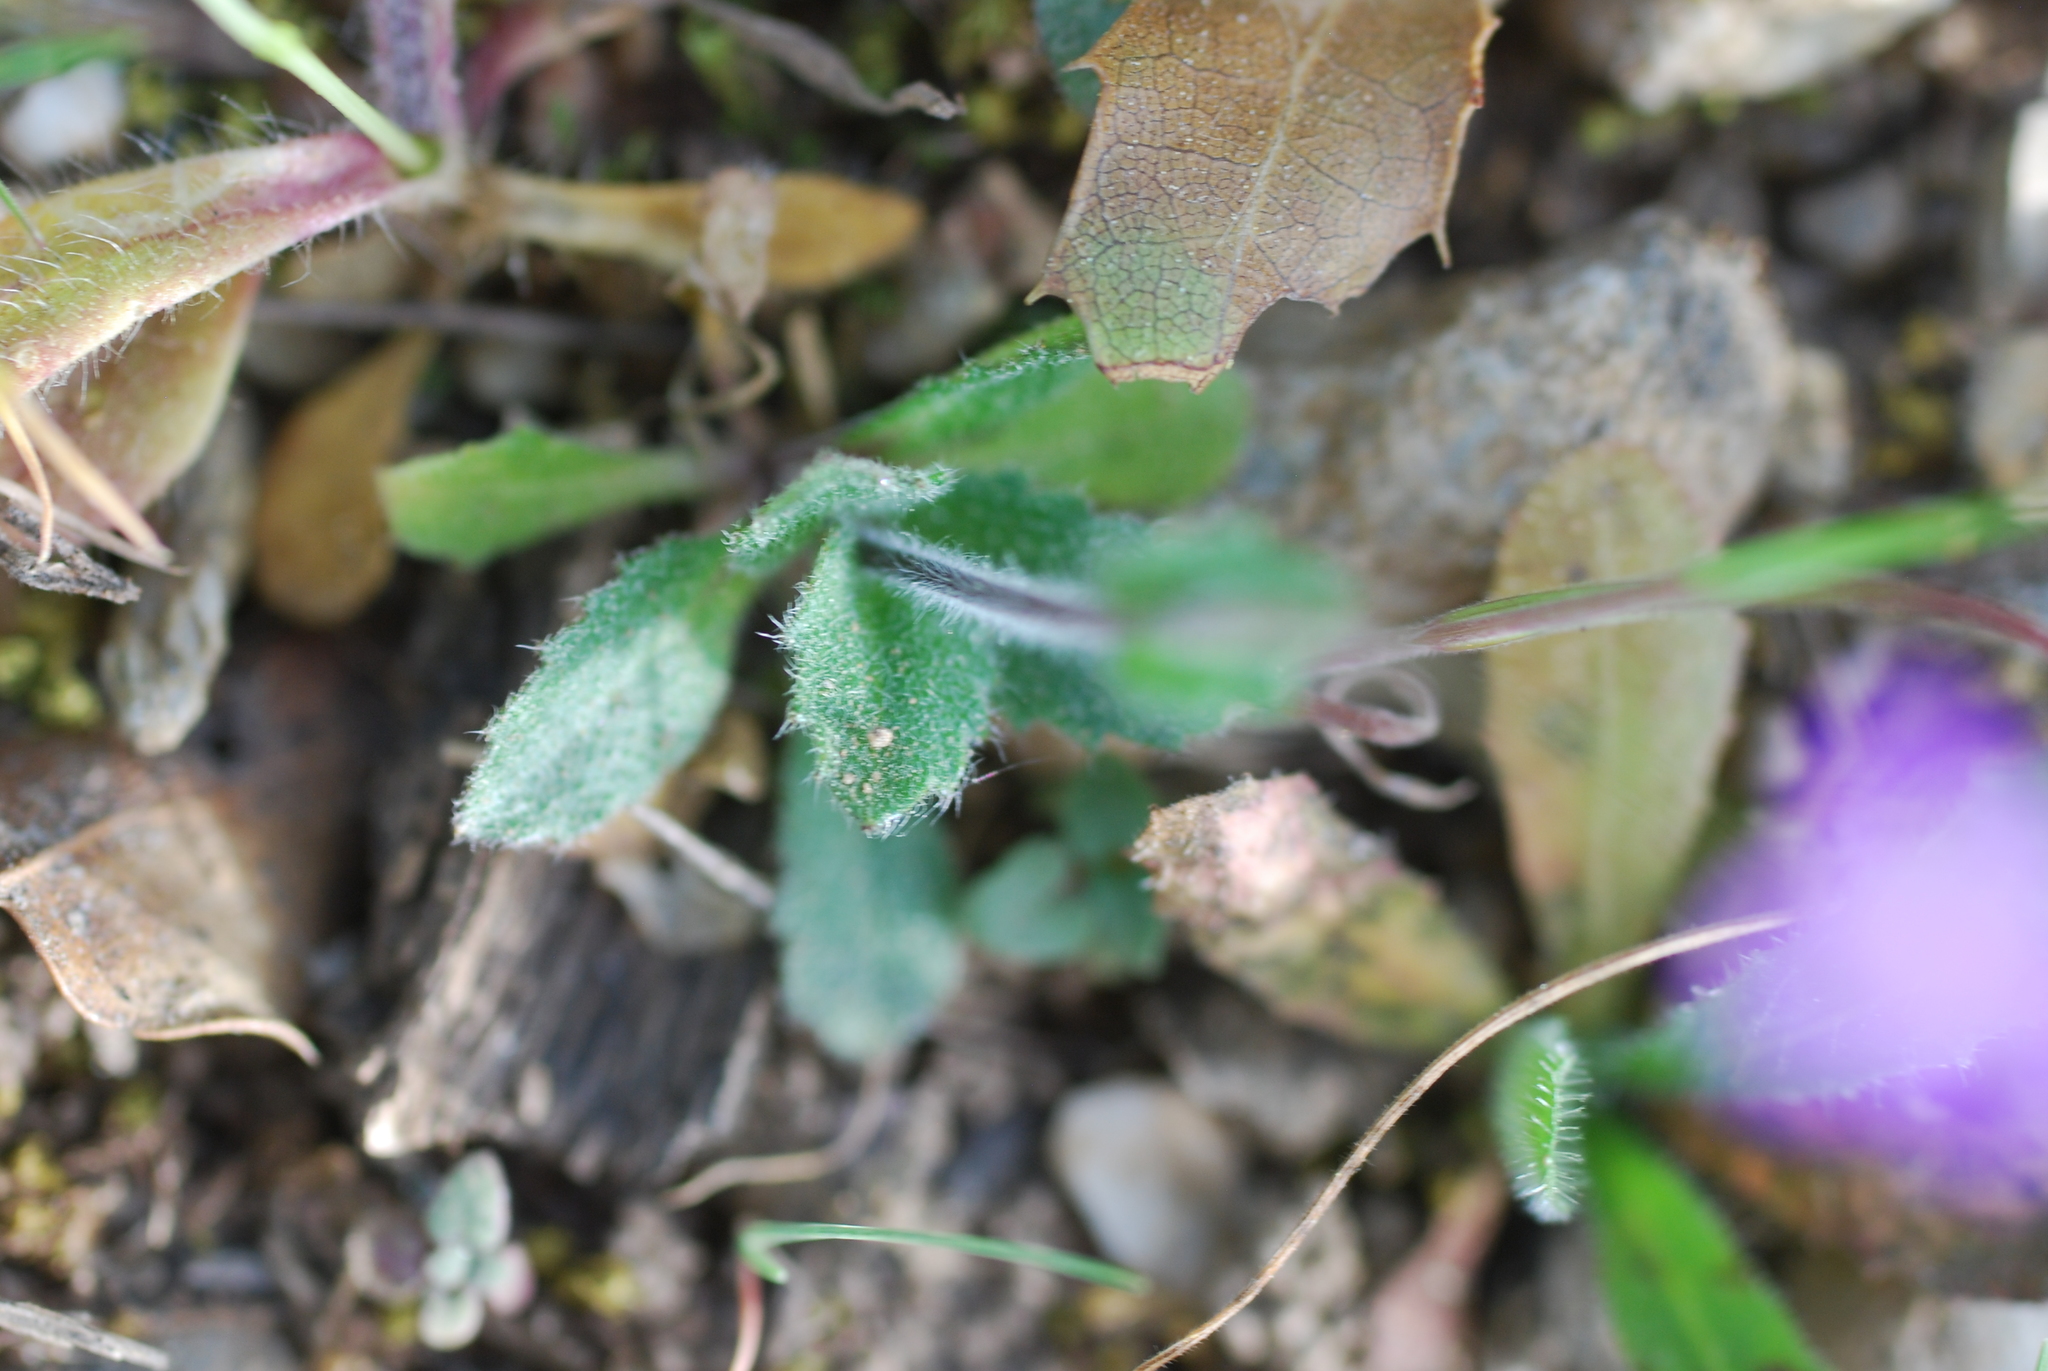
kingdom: Plantae
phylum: Tracheophyta
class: Magnoliopsida
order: Brassicales
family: Brassicaceae
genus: Arabis
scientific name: Arabis verna
